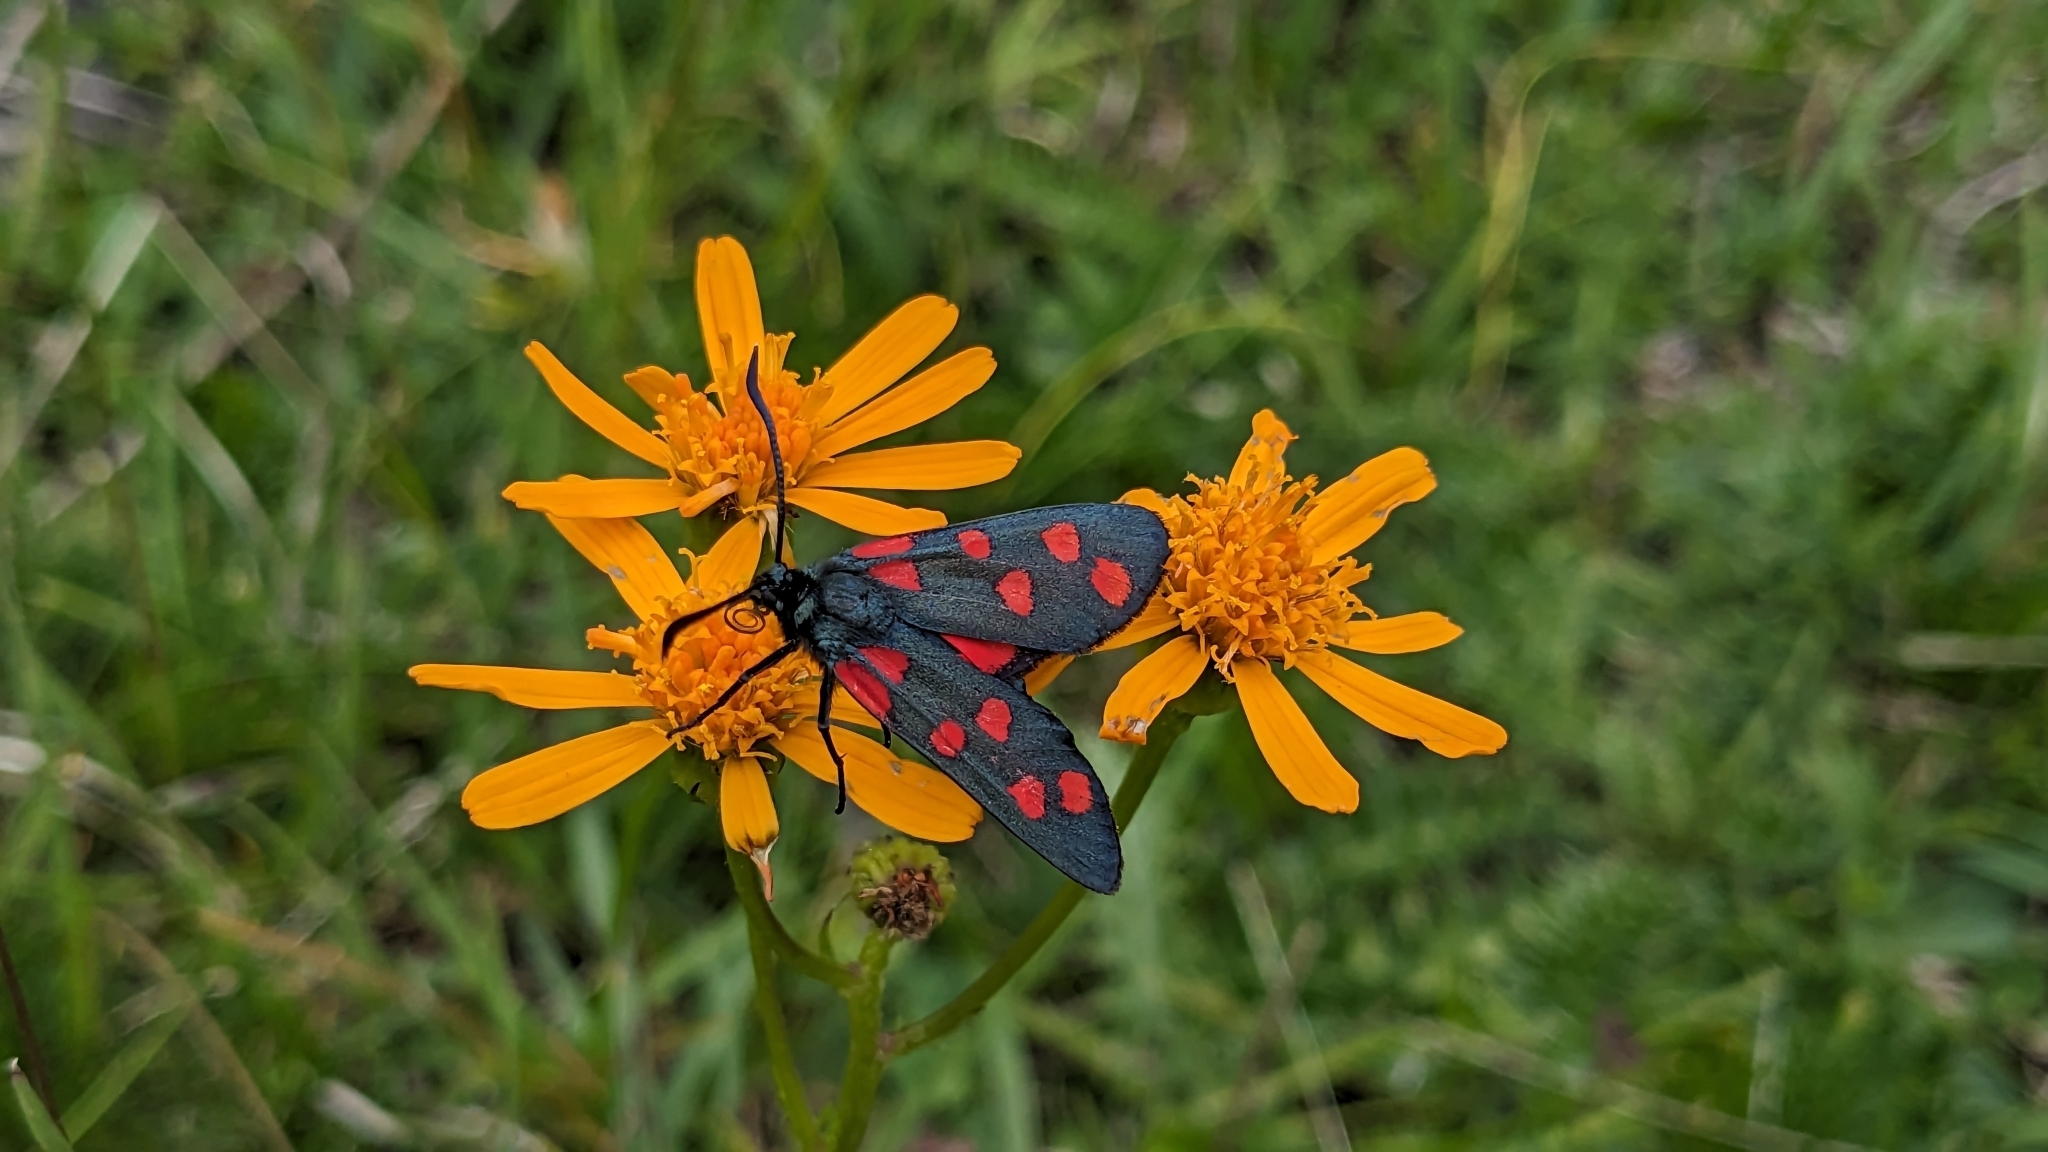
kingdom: Animalia
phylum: Arthropoda
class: Insecta
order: Lepidoptera
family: Zygaenidae
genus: Zygaena
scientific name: Zygaena transalpina
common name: Southern six spot burnet
